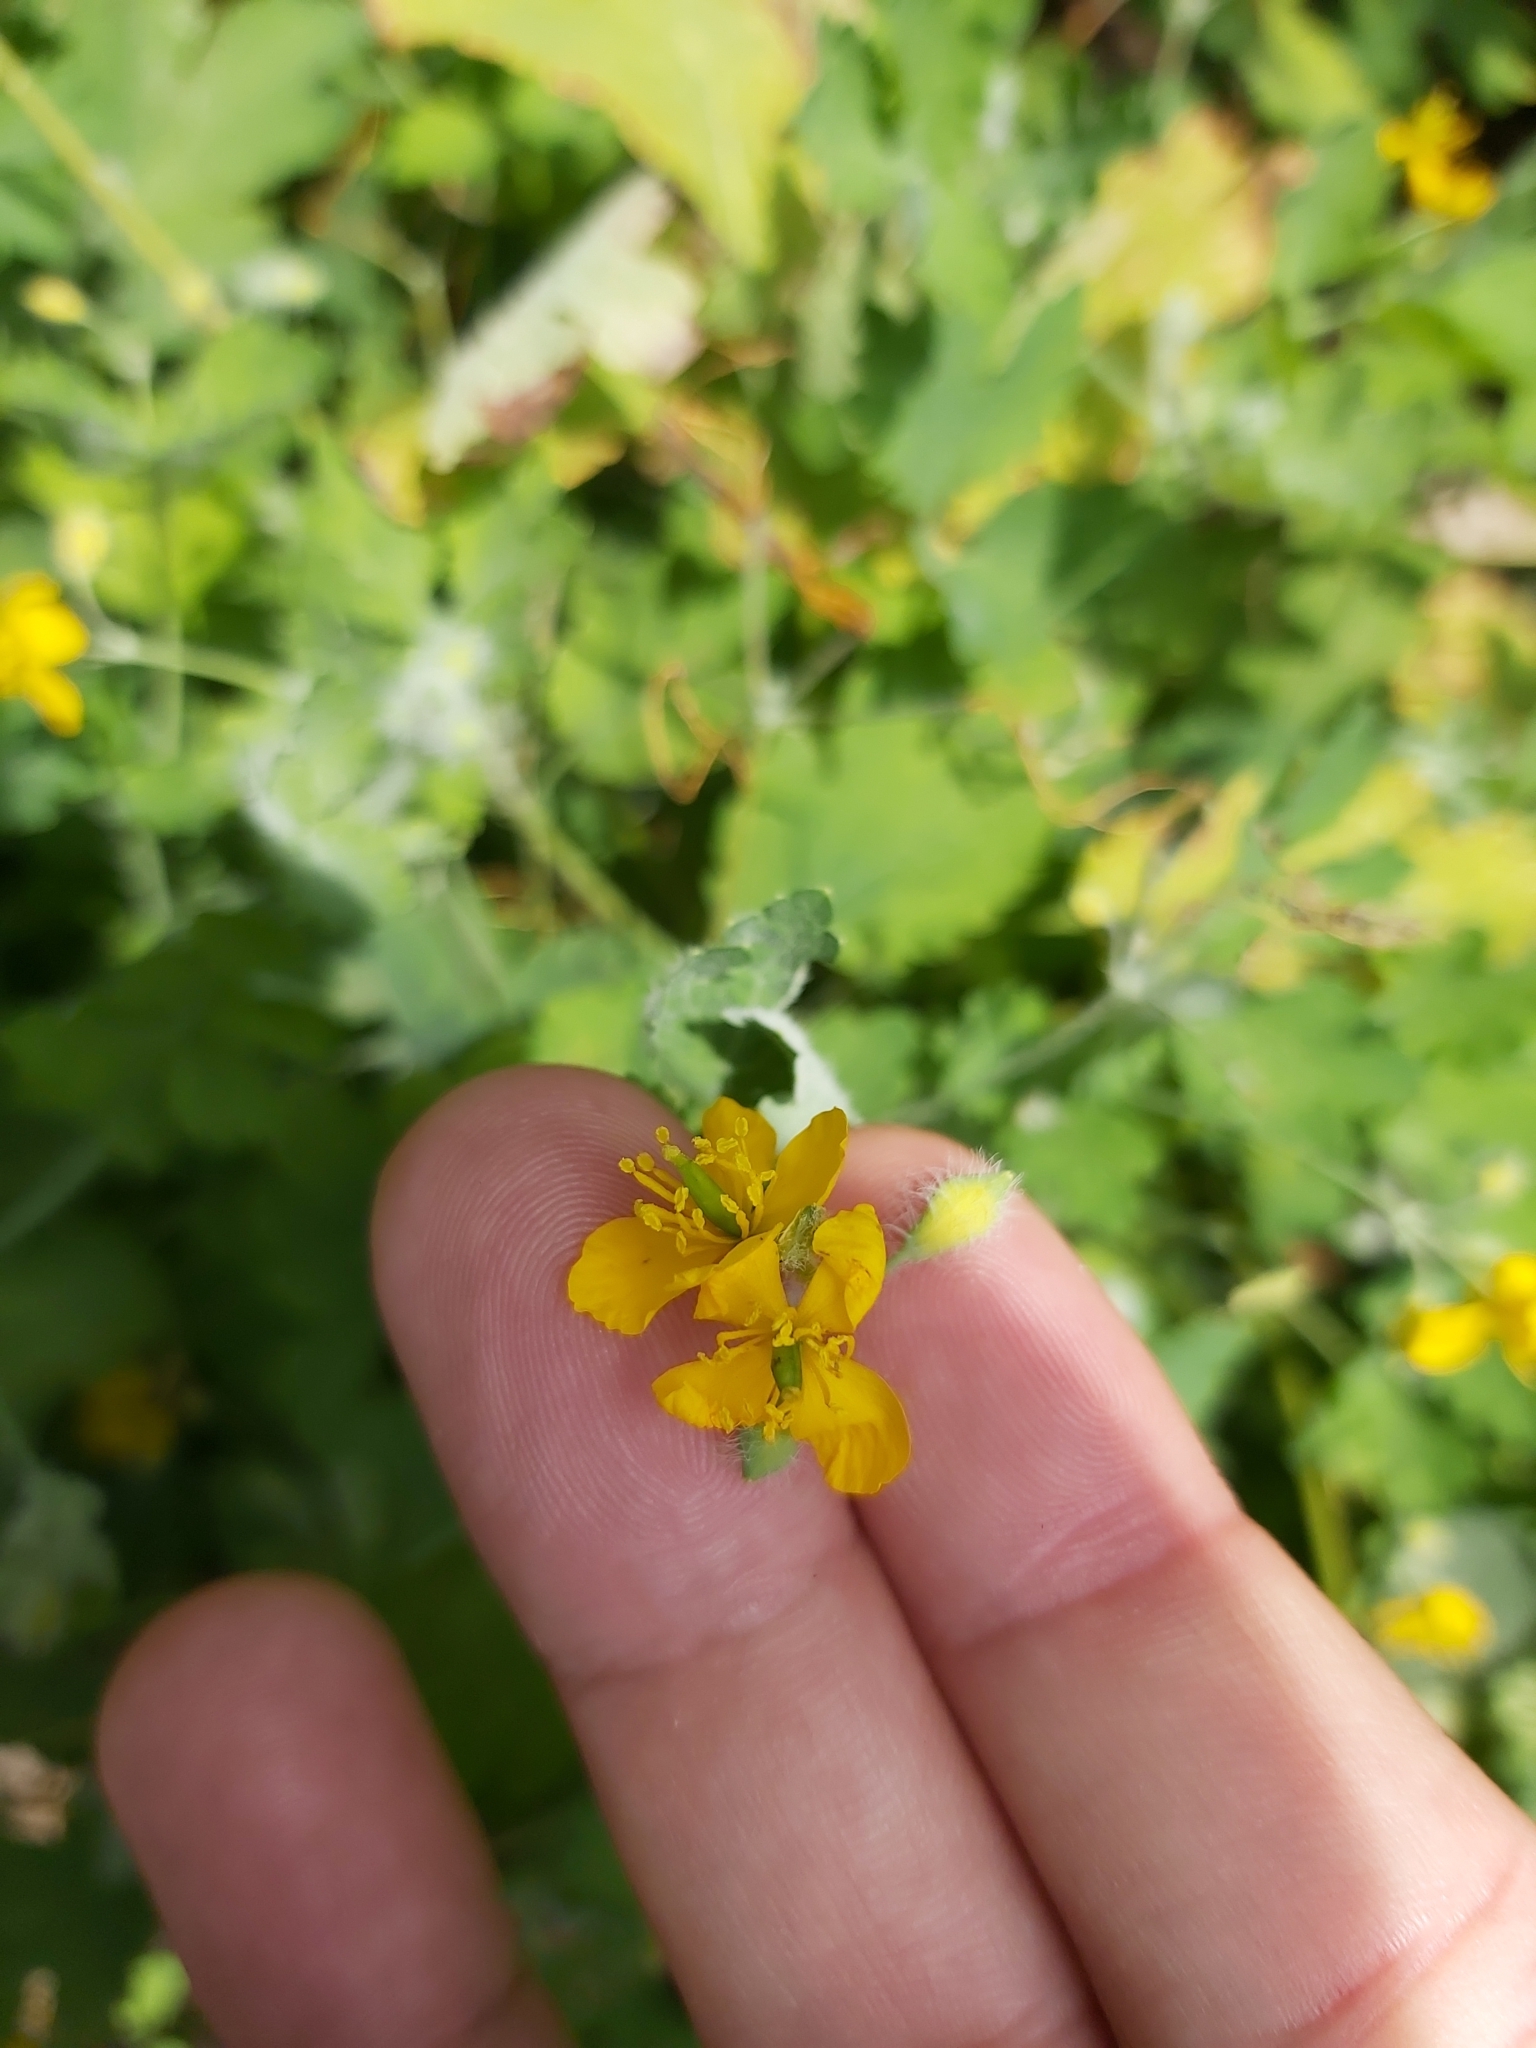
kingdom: Plantae
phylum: Tracheophyta
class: Magnoliopsida
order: Ranunculales
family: Papaveraceae
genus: Chelidonium
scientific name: Chelidonium majus
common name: Greater celandine
